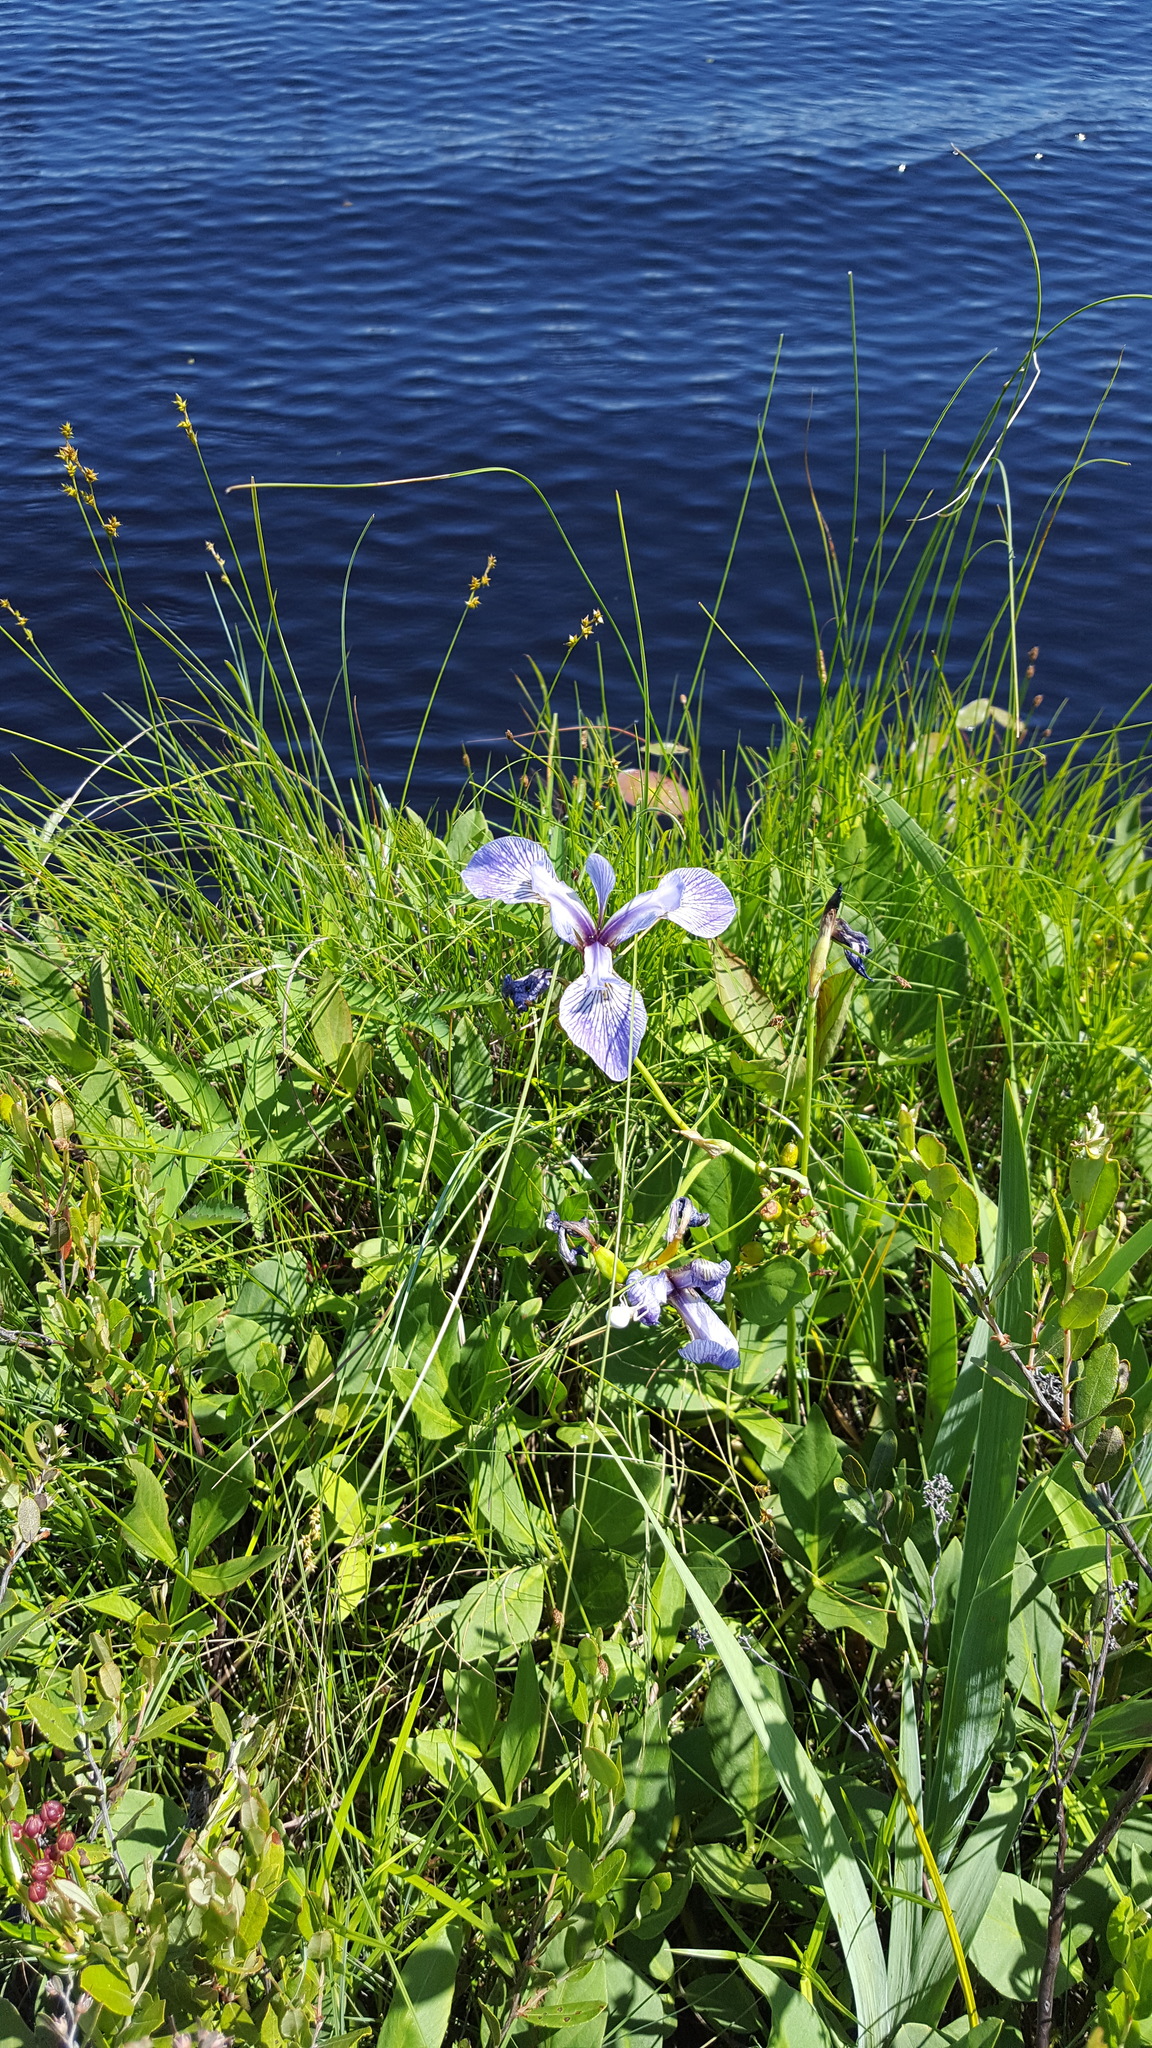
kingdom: Plantae
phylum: Tracheophyta
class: Liliopsida
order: Asparagales
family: Iridaceae
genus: Iris
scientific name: Iris versicolor
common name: Purple iris
